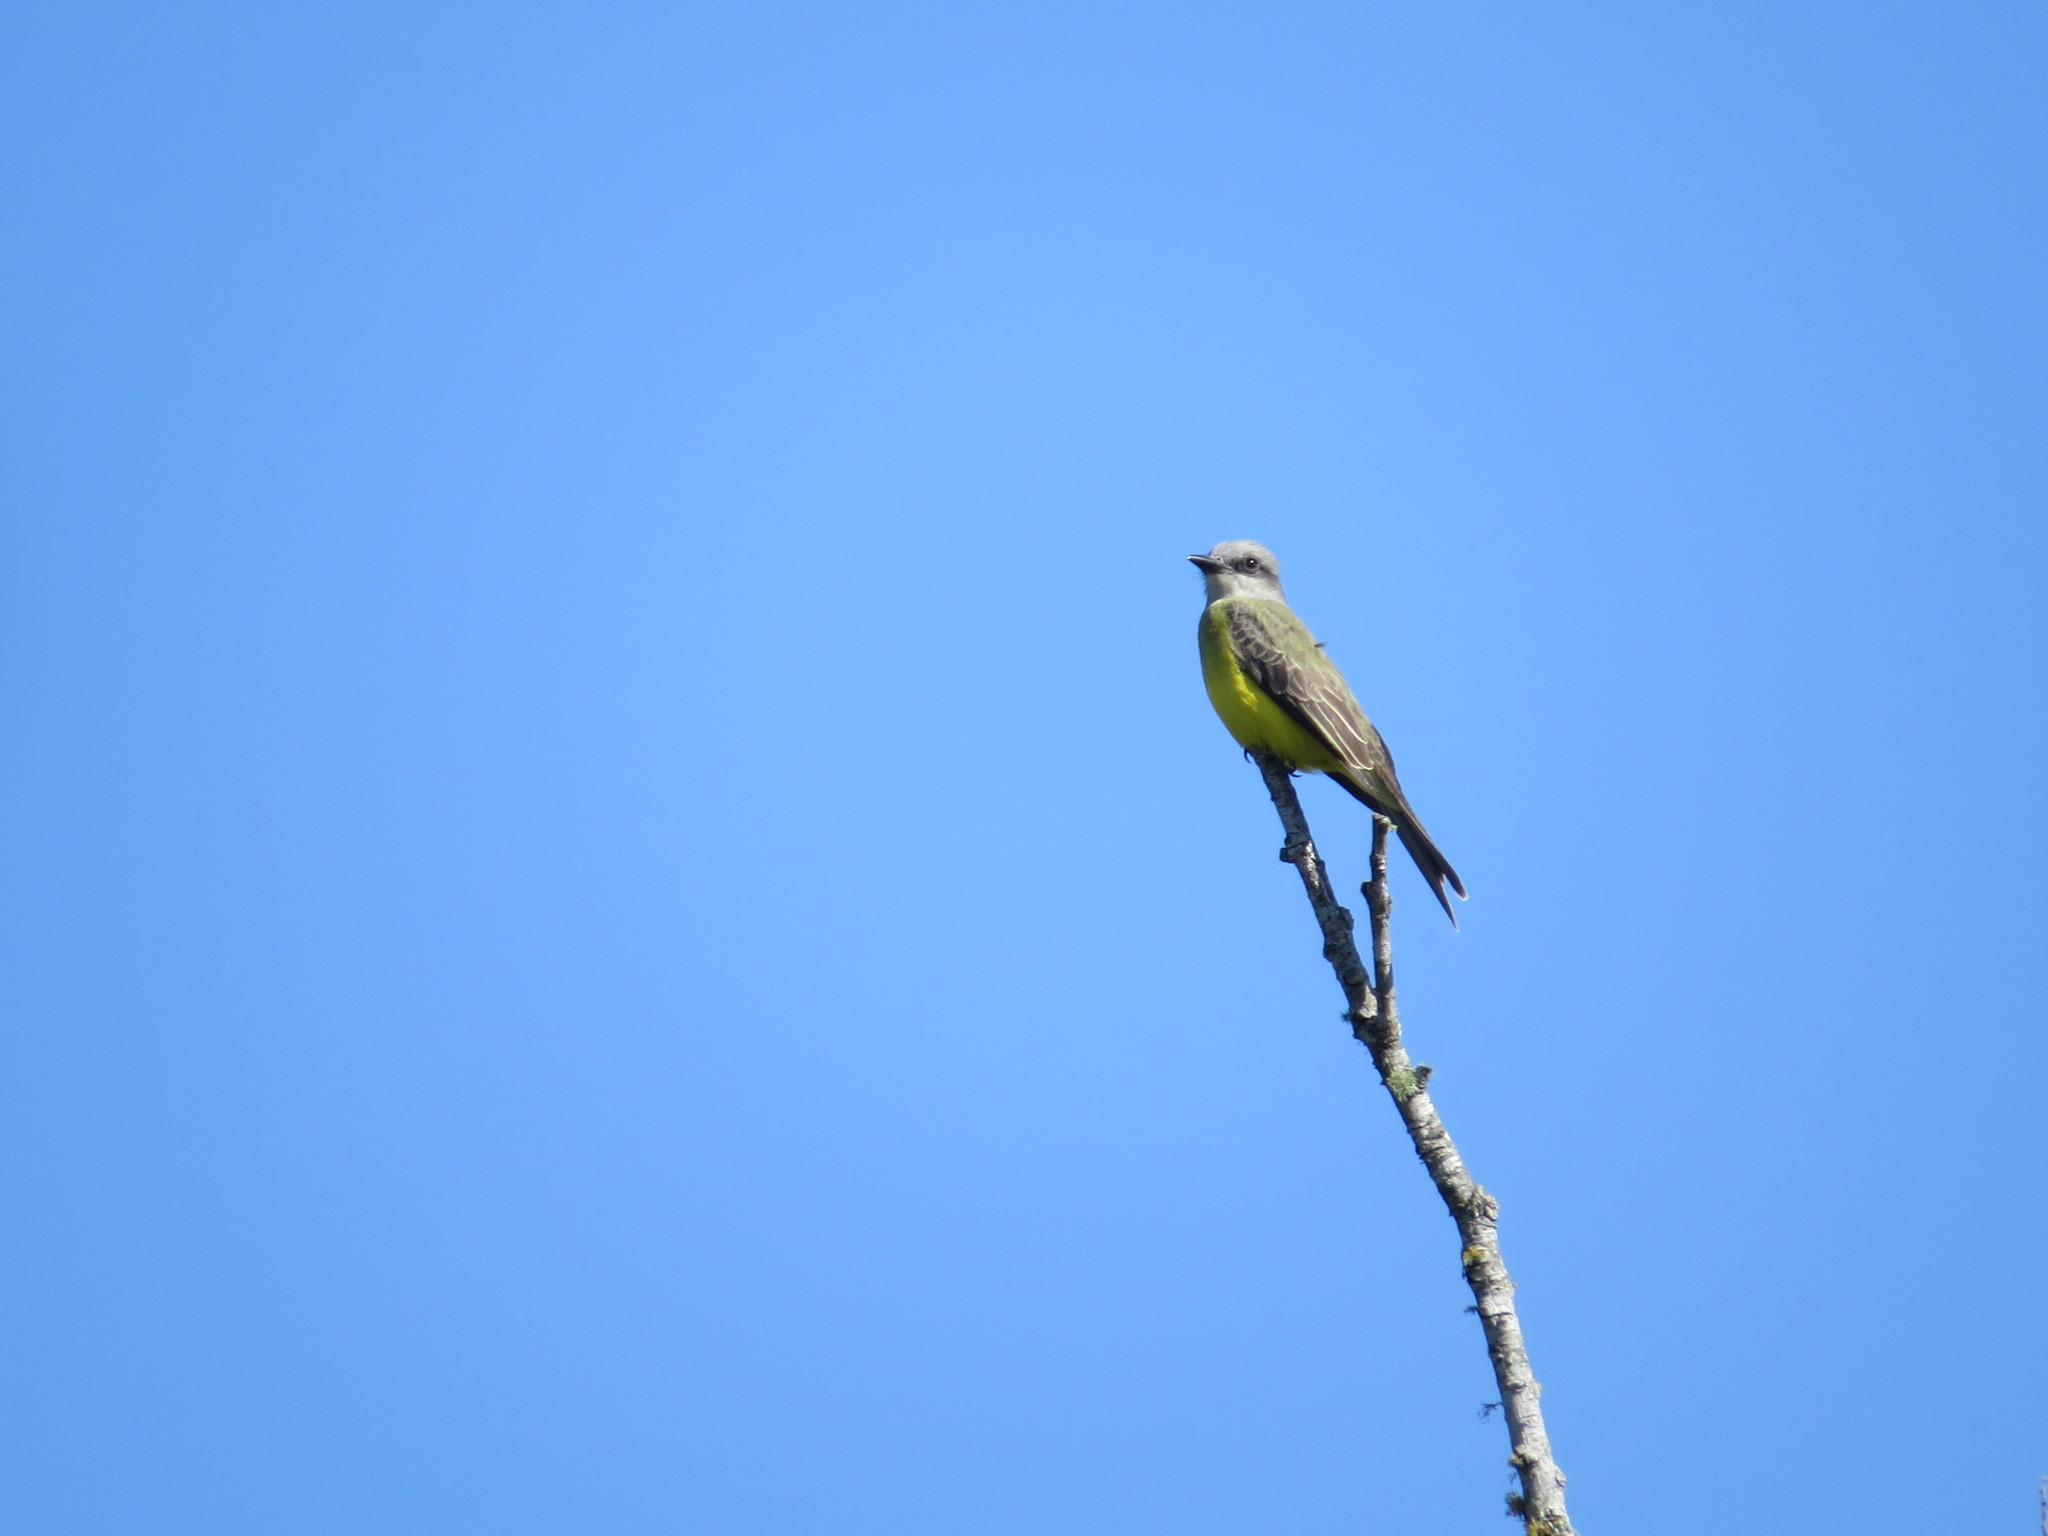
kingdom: Animalia
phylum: Chordata
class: Aves
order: Passeriformes
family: Tyrannidae
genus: Tyrannus
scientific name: Tyrannus melancholicus
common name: Tropical kingbird
